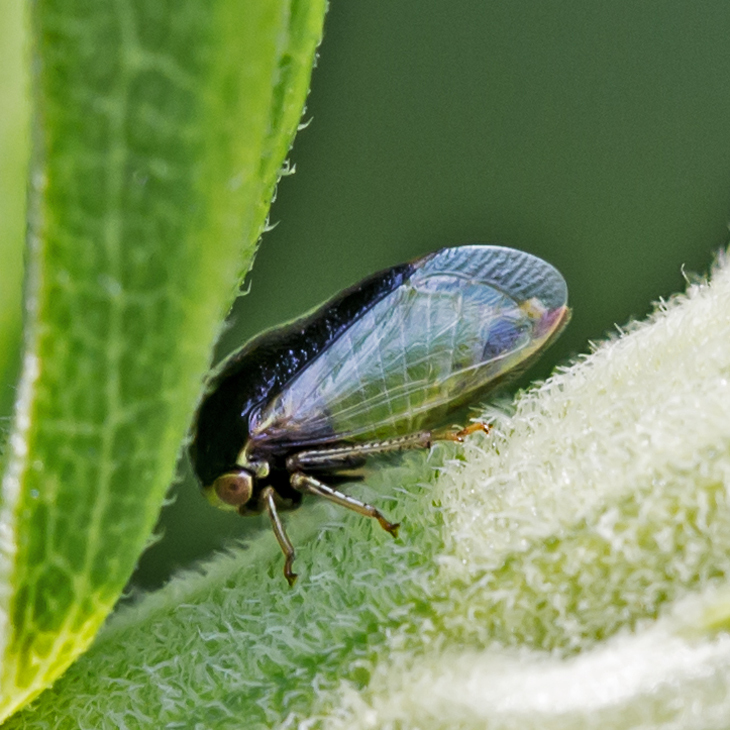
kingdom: Animalia
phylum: Arthropoda
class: Insecta
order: Hemiptera
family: Membracidae
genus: Micrutalis
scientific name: Micrutalis calva
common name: Honeylocust treehopper
